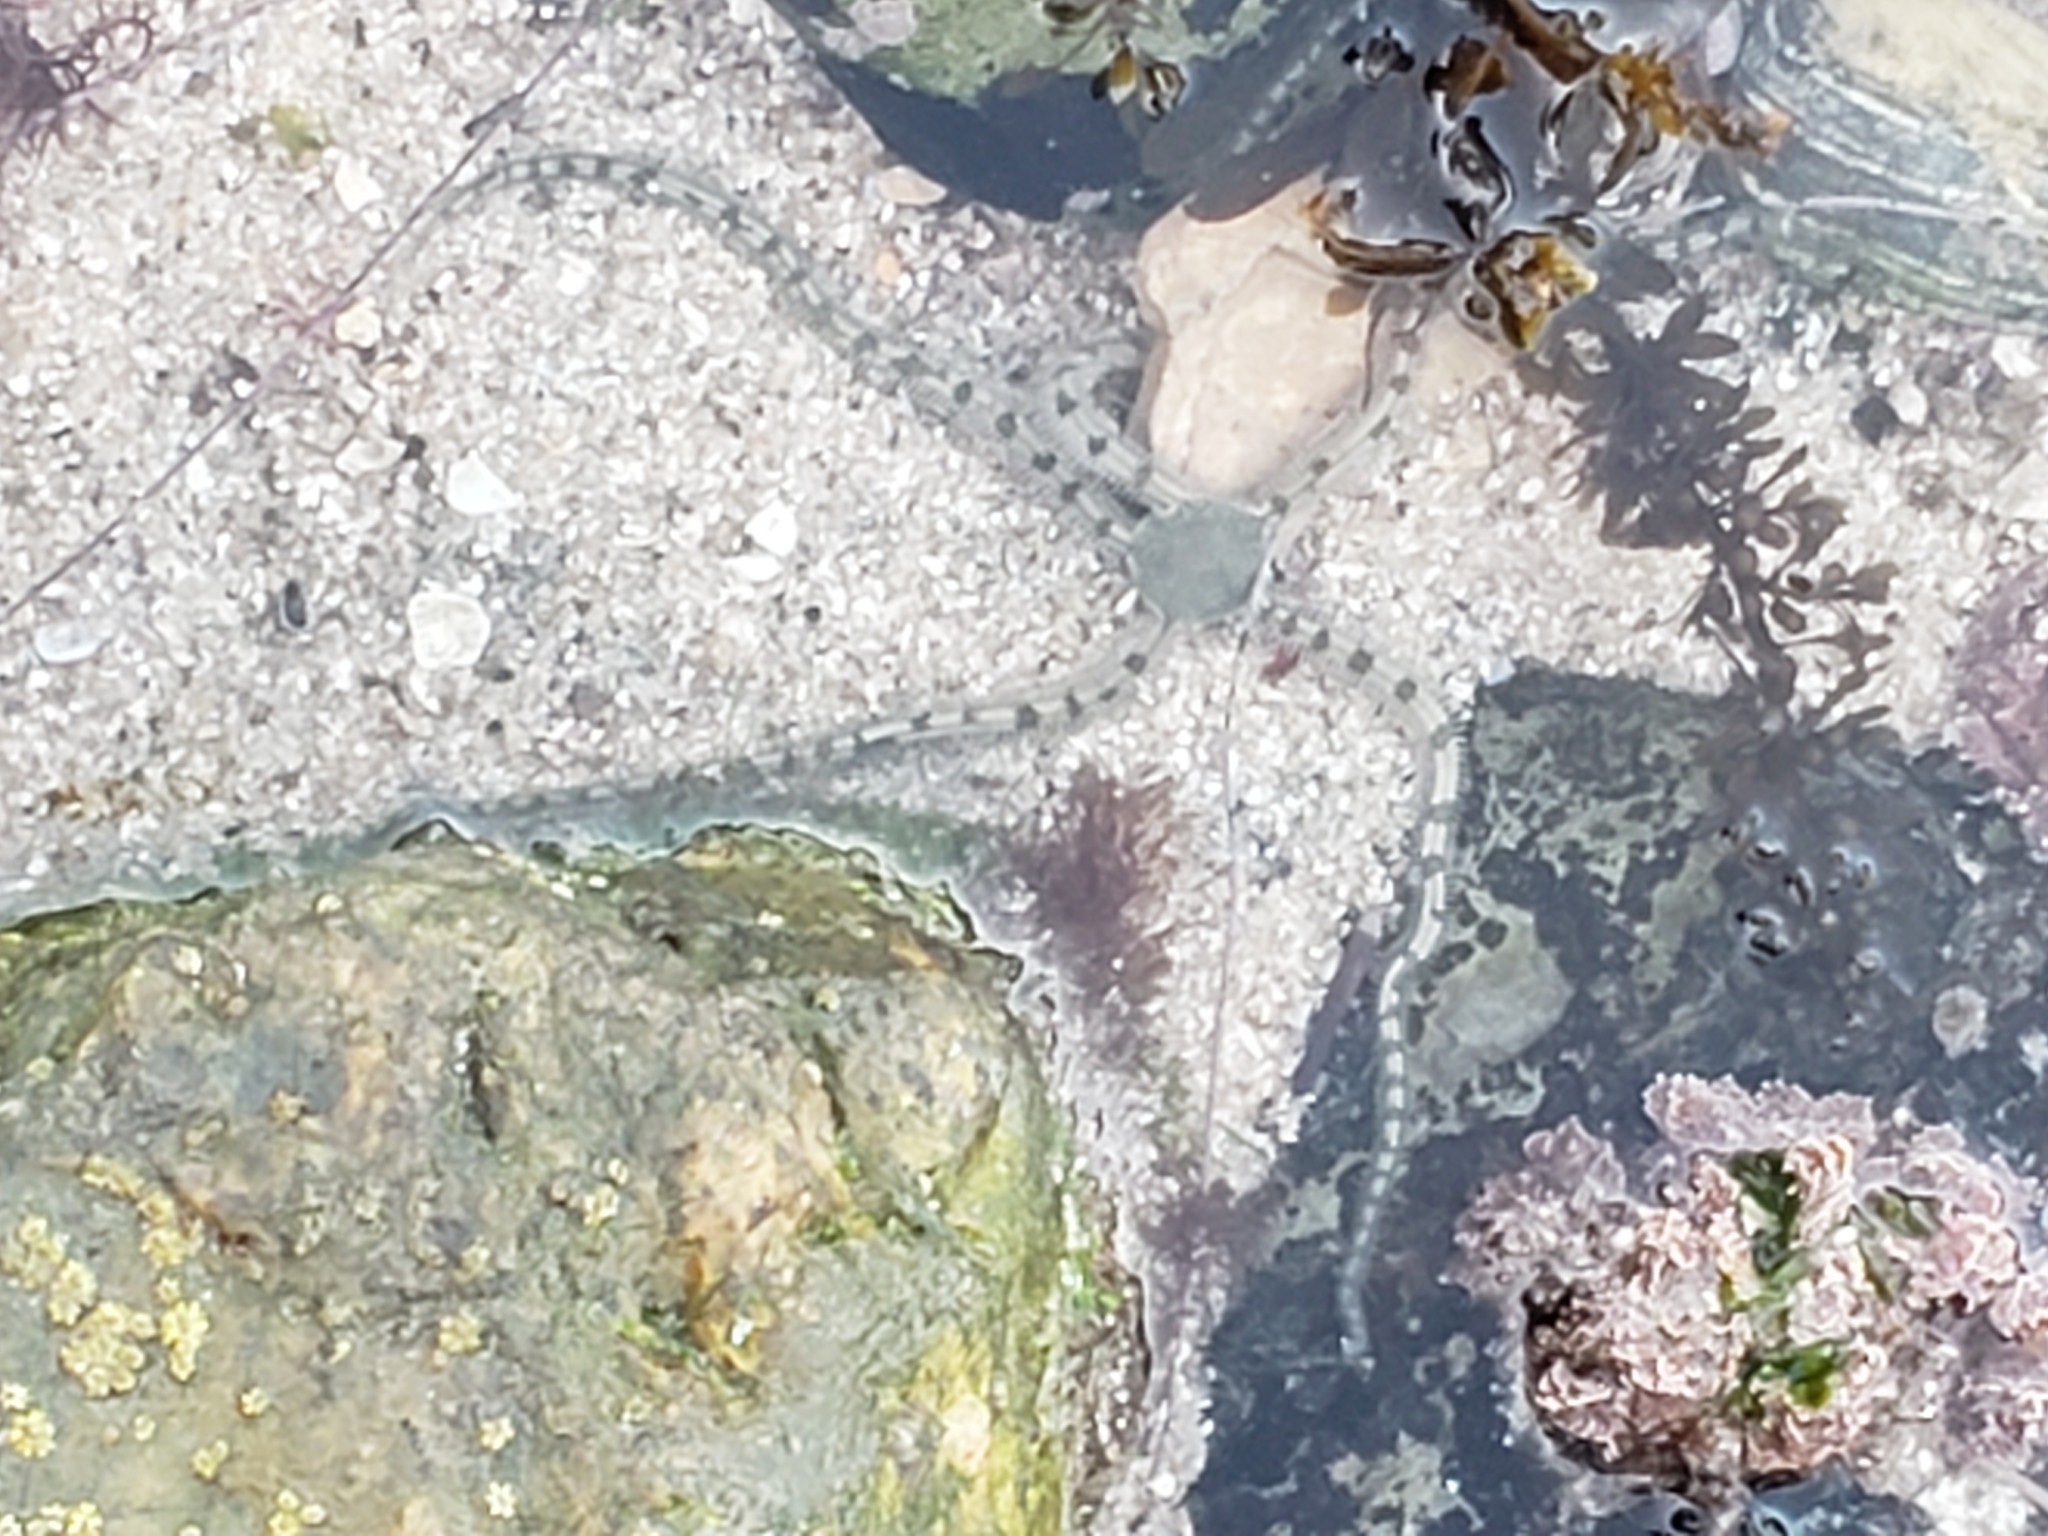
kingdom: Animalia
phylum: Echinodermata
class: Ophiuroidea
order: Amphilepidida
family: Ophionereididae
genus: Ophionereis
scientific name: Ophionereis annulata
